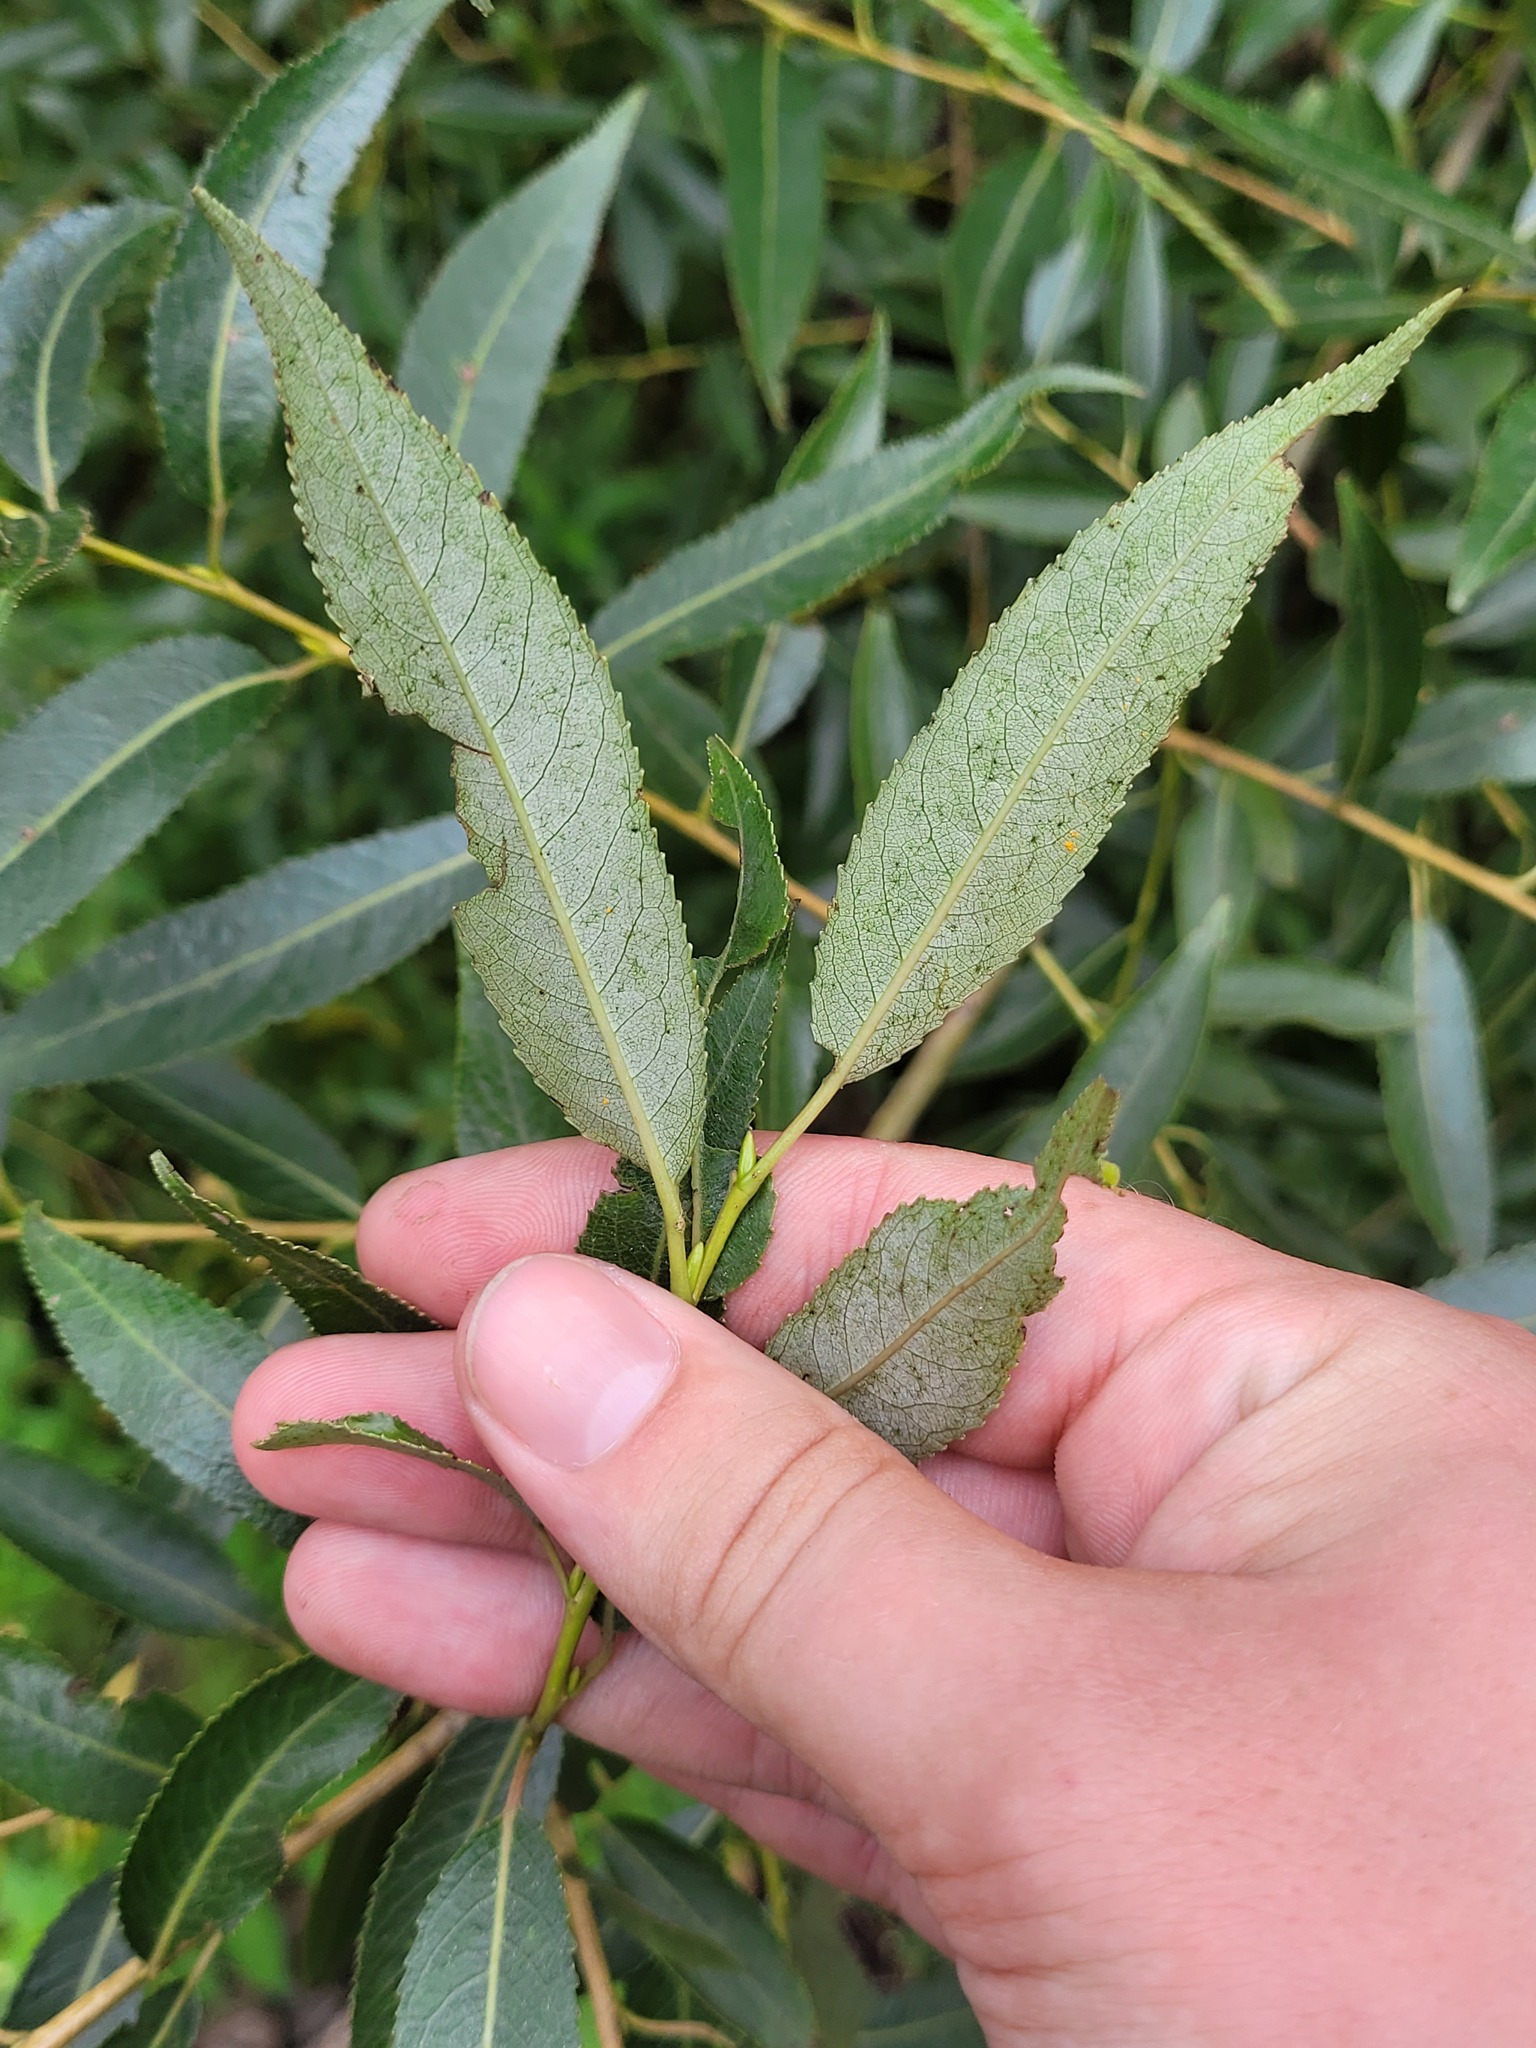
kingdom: Plantae
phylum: Tracheophyta
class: Magnoliopsida
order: Malpighiales
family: Salicaceae
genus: Salix
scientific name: Salix alba
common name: White willow
